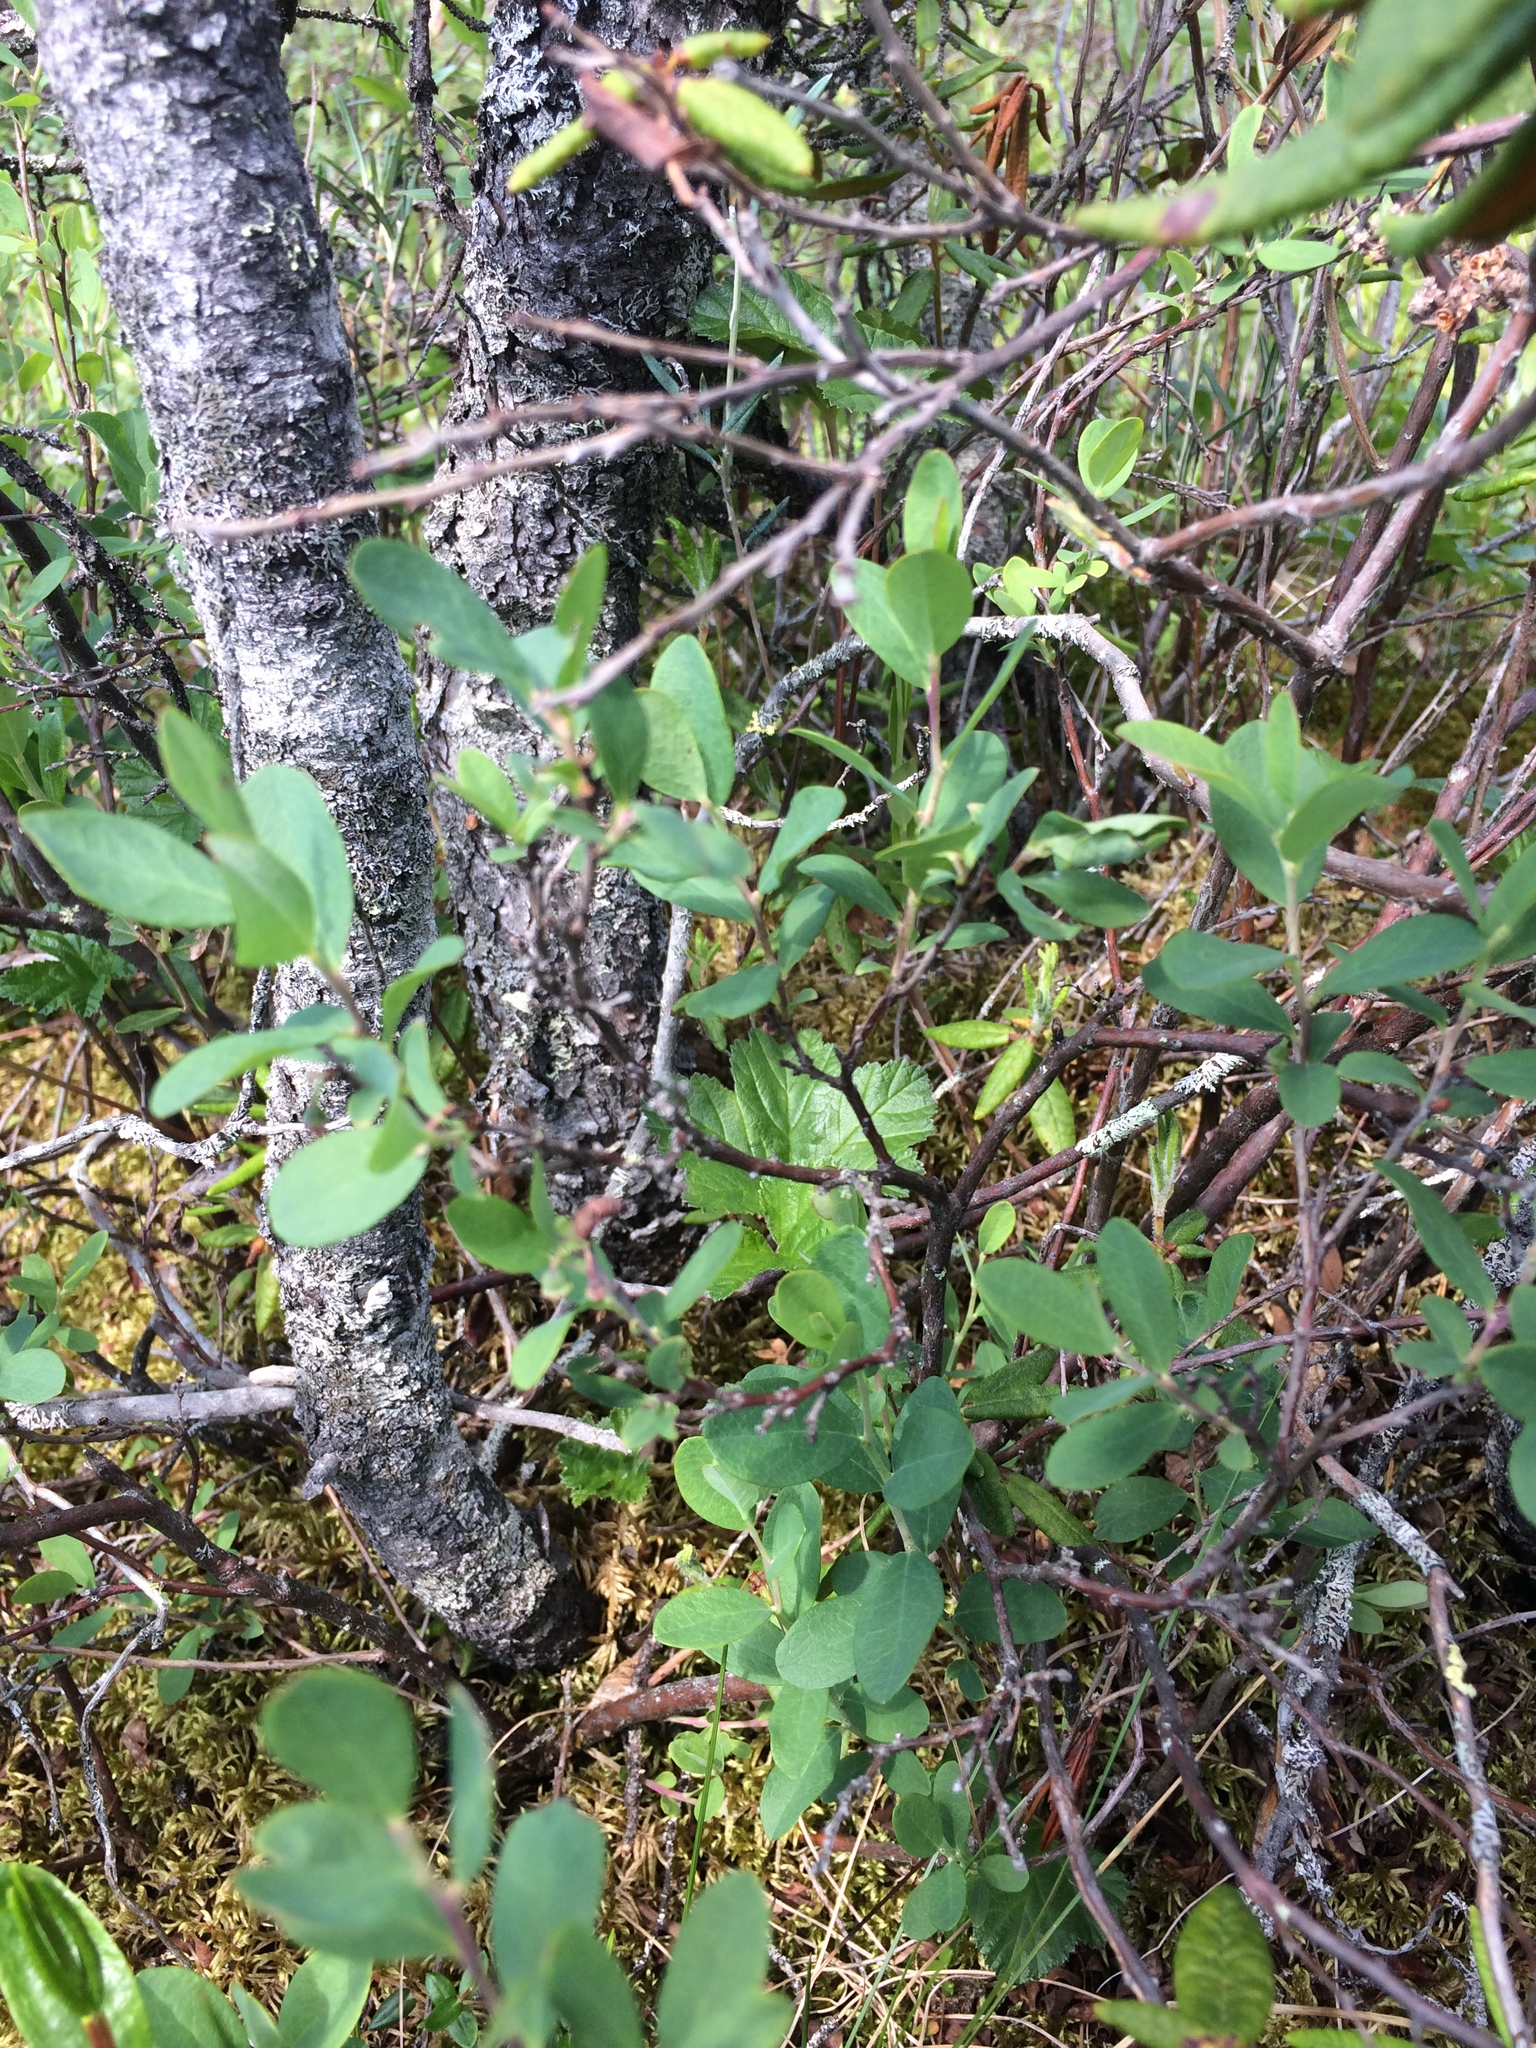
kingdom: Plantae
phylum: Tracheophyta
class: Magnoliopsida
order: Ericales
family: Ericaceae
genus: Vaccinium
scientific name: Vaccinium uliginosum
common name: Bog bilberry
